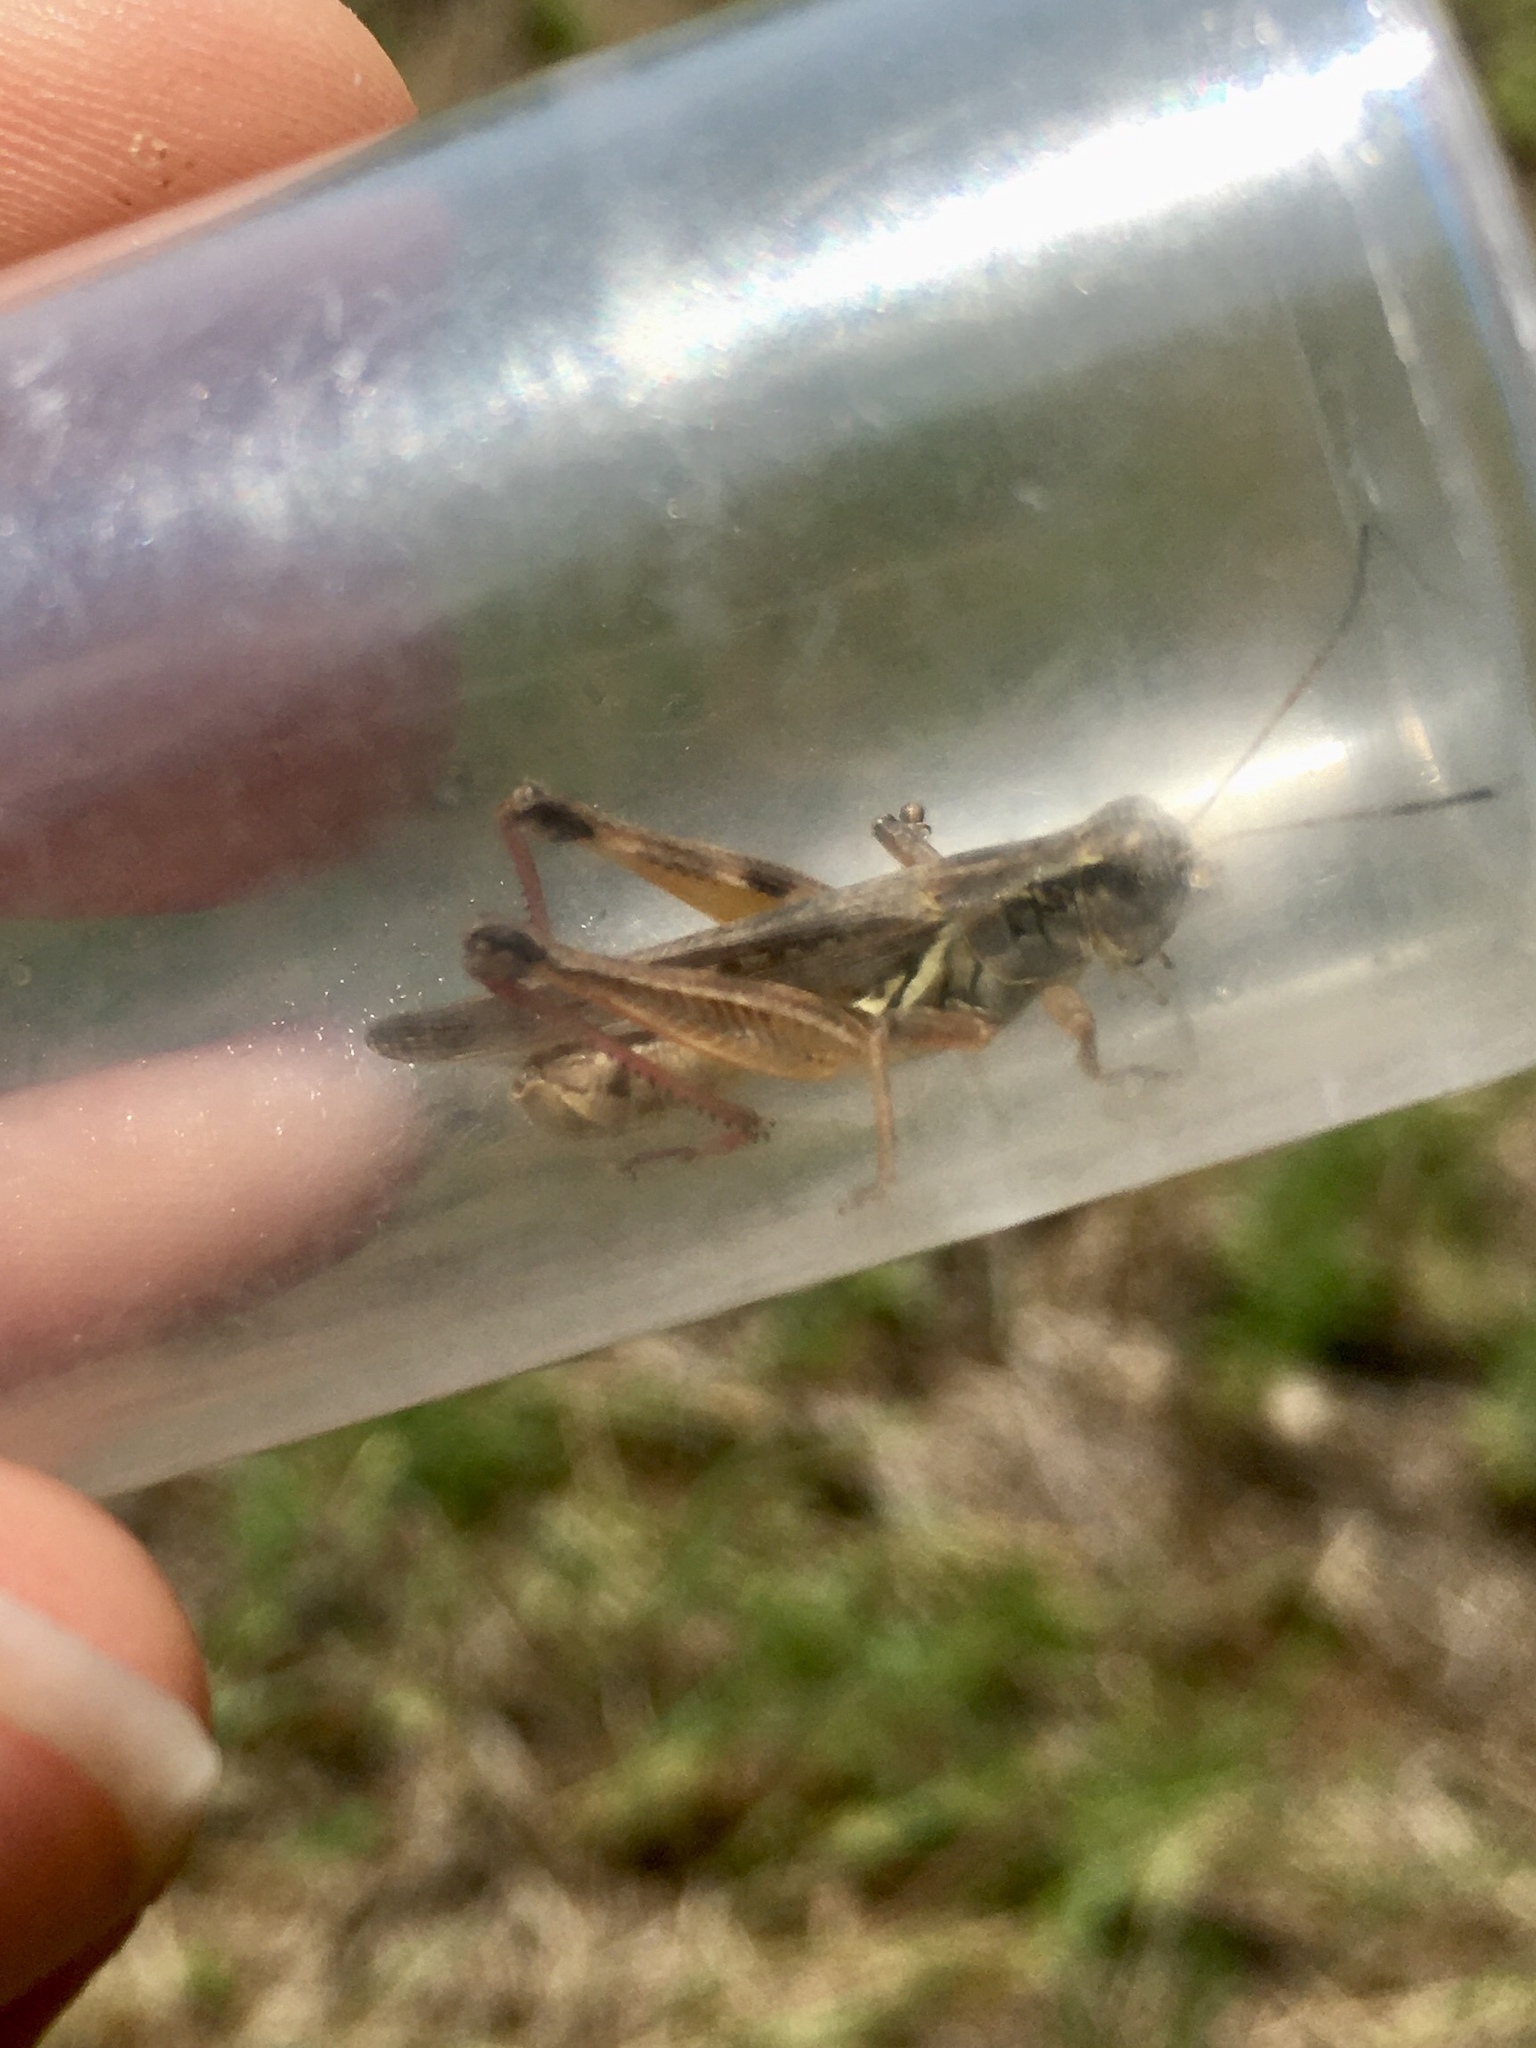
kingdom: Animalia
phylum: Arthropoda
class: Insecta
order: Orthoptera
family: Acrididae
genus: Melanoplus
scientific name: Melanoplus femurrubrum
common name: Red-legged grasshopper
